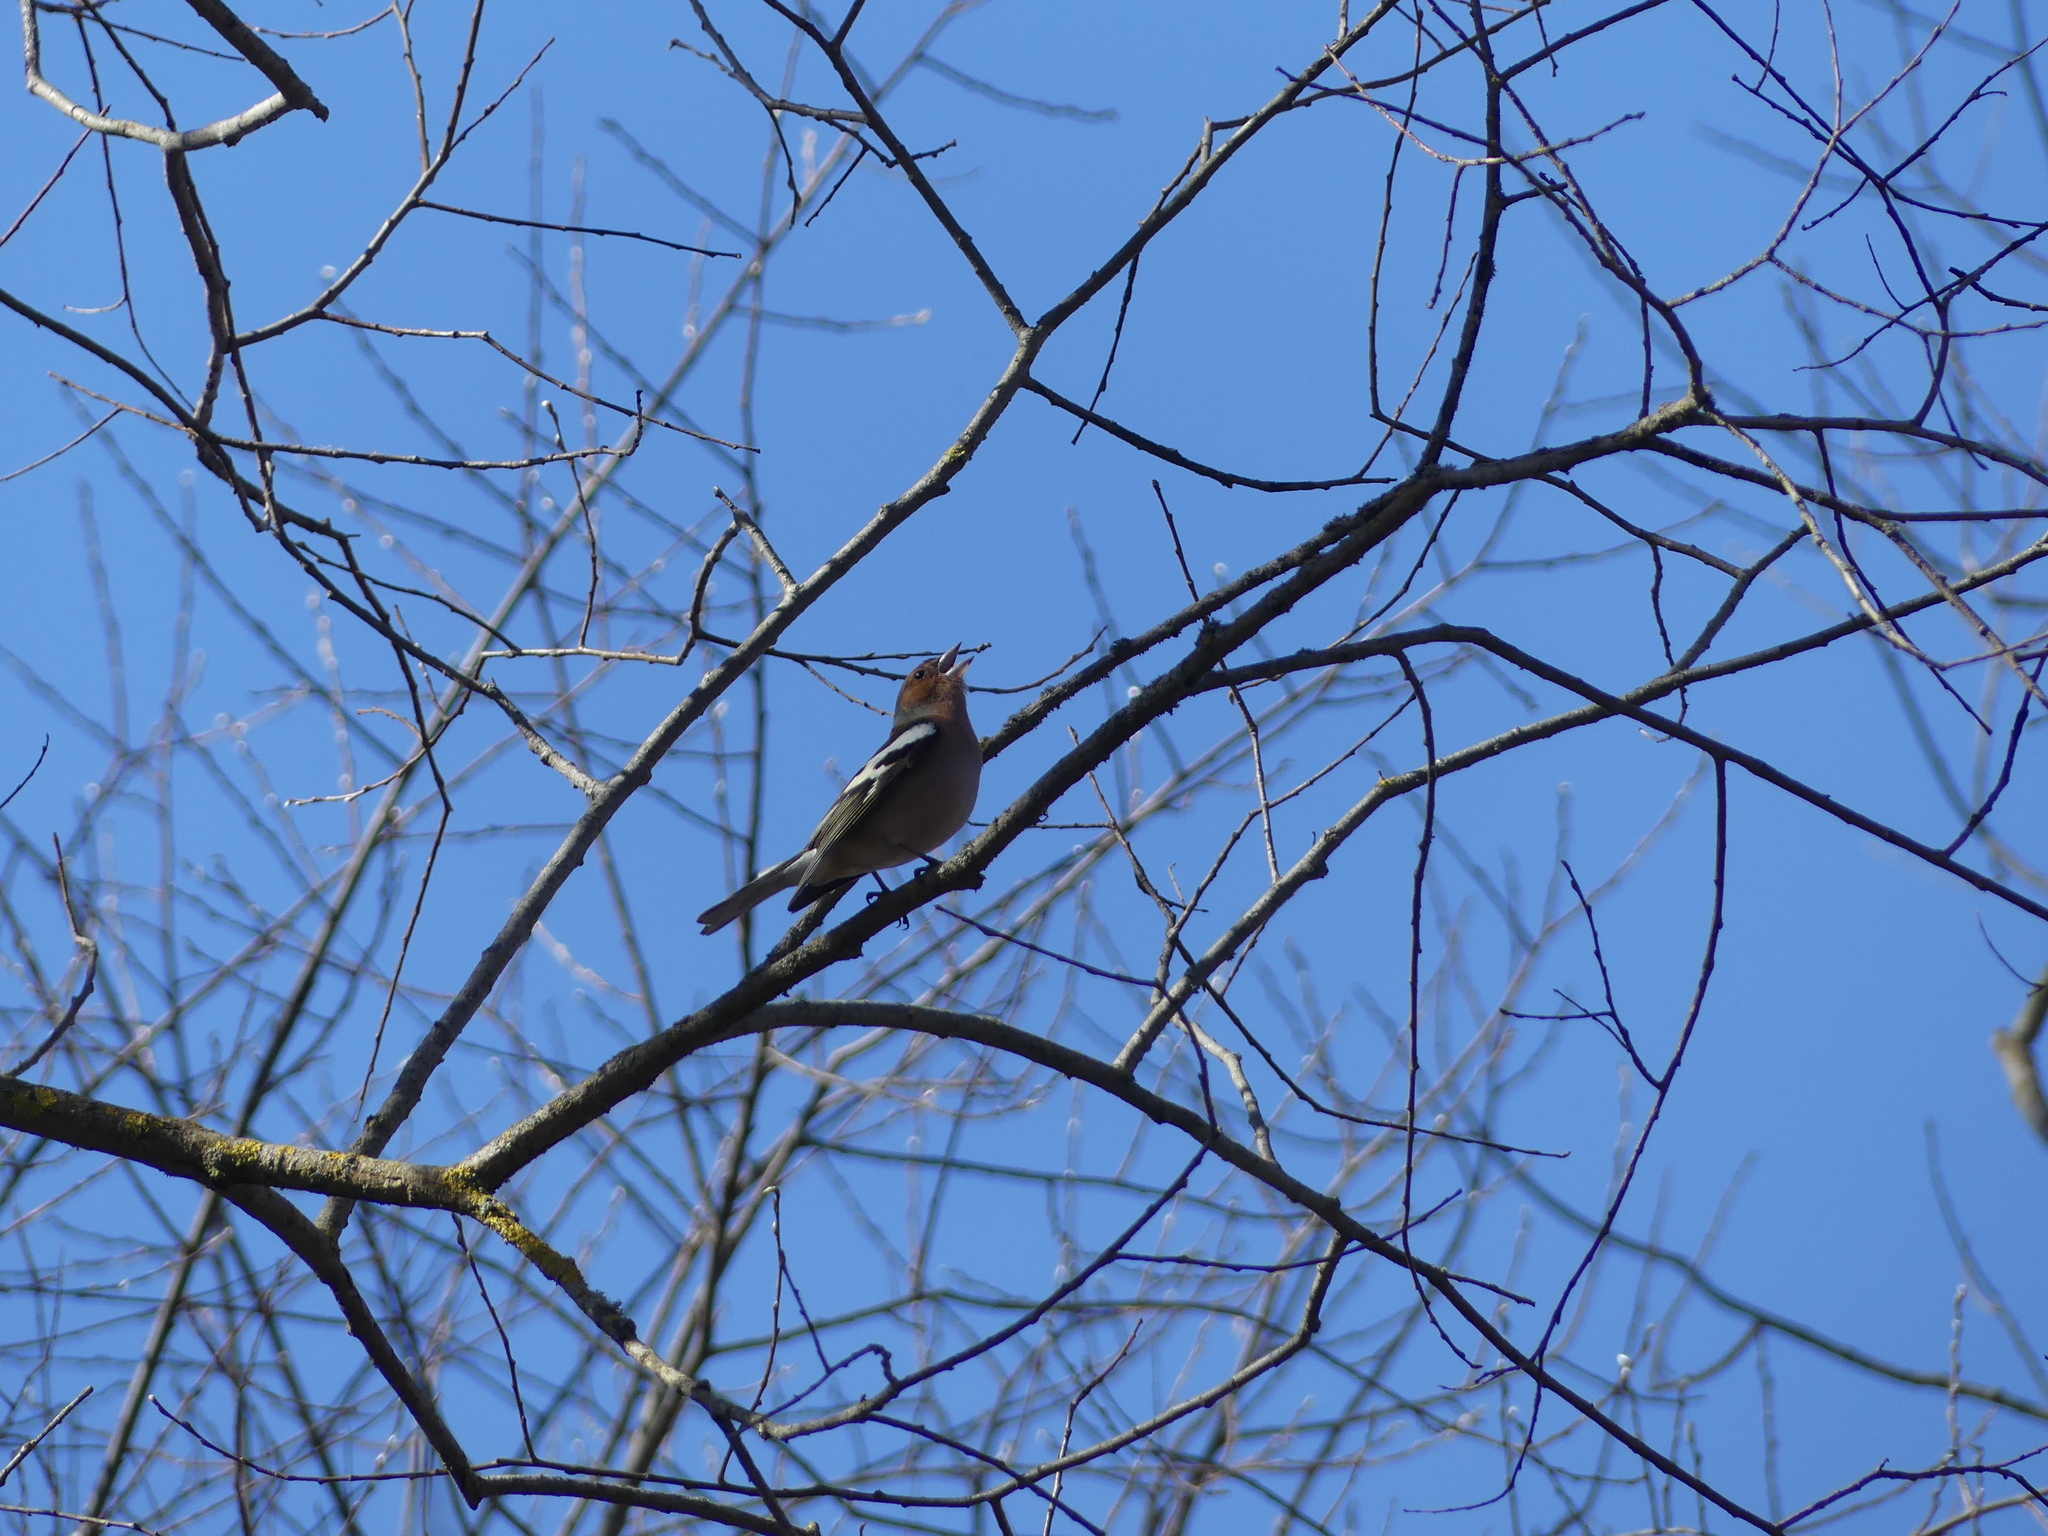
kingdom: Animalia
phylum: Chordata
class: Aves
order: Passeriformes
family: Fringillidae
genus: Fringilla
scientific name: Fringilla coelebs
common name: Common chaffinch
